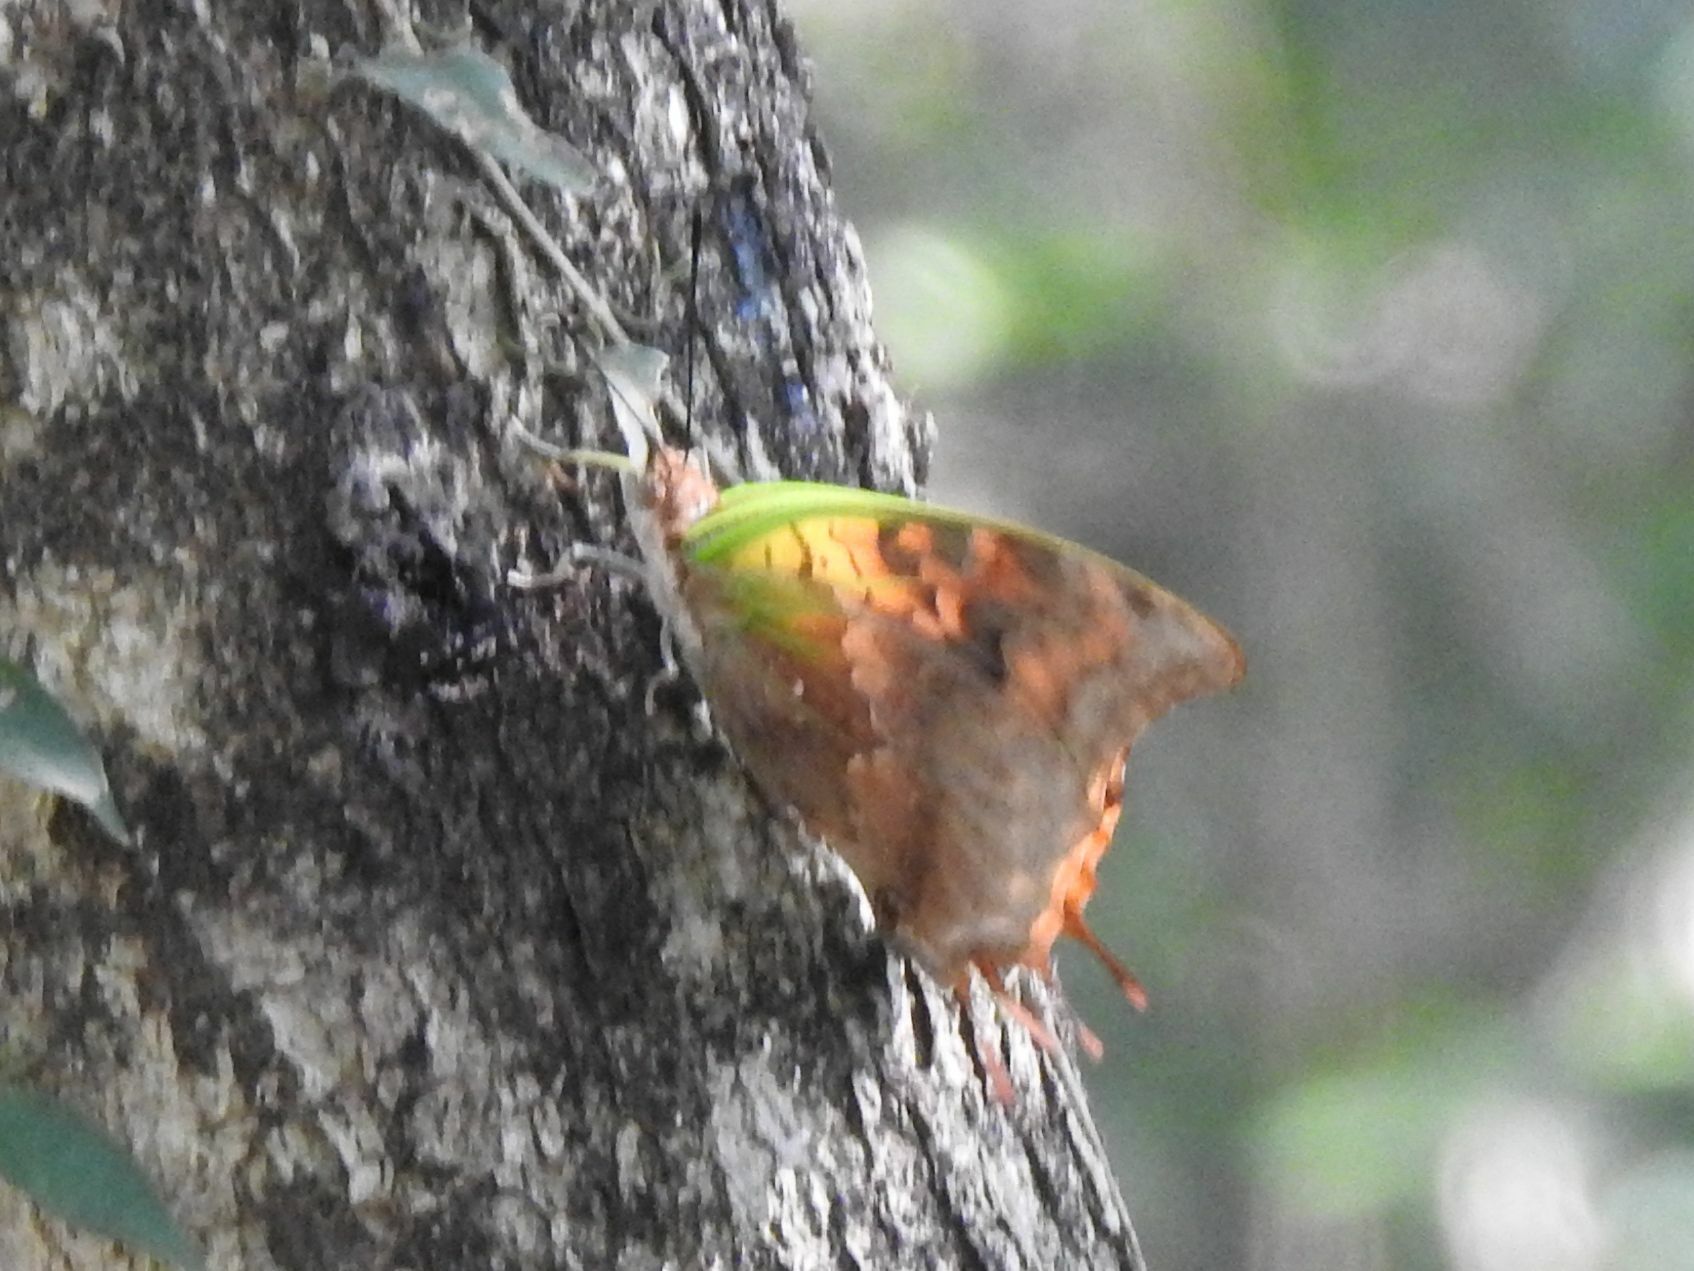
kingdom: Animalia
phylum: Arthropoda
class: Insecta
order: Lepidoptera
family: Nymphalidae
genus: Charaxes
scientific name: Charaxes candiope
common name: Green-veined charaxes
